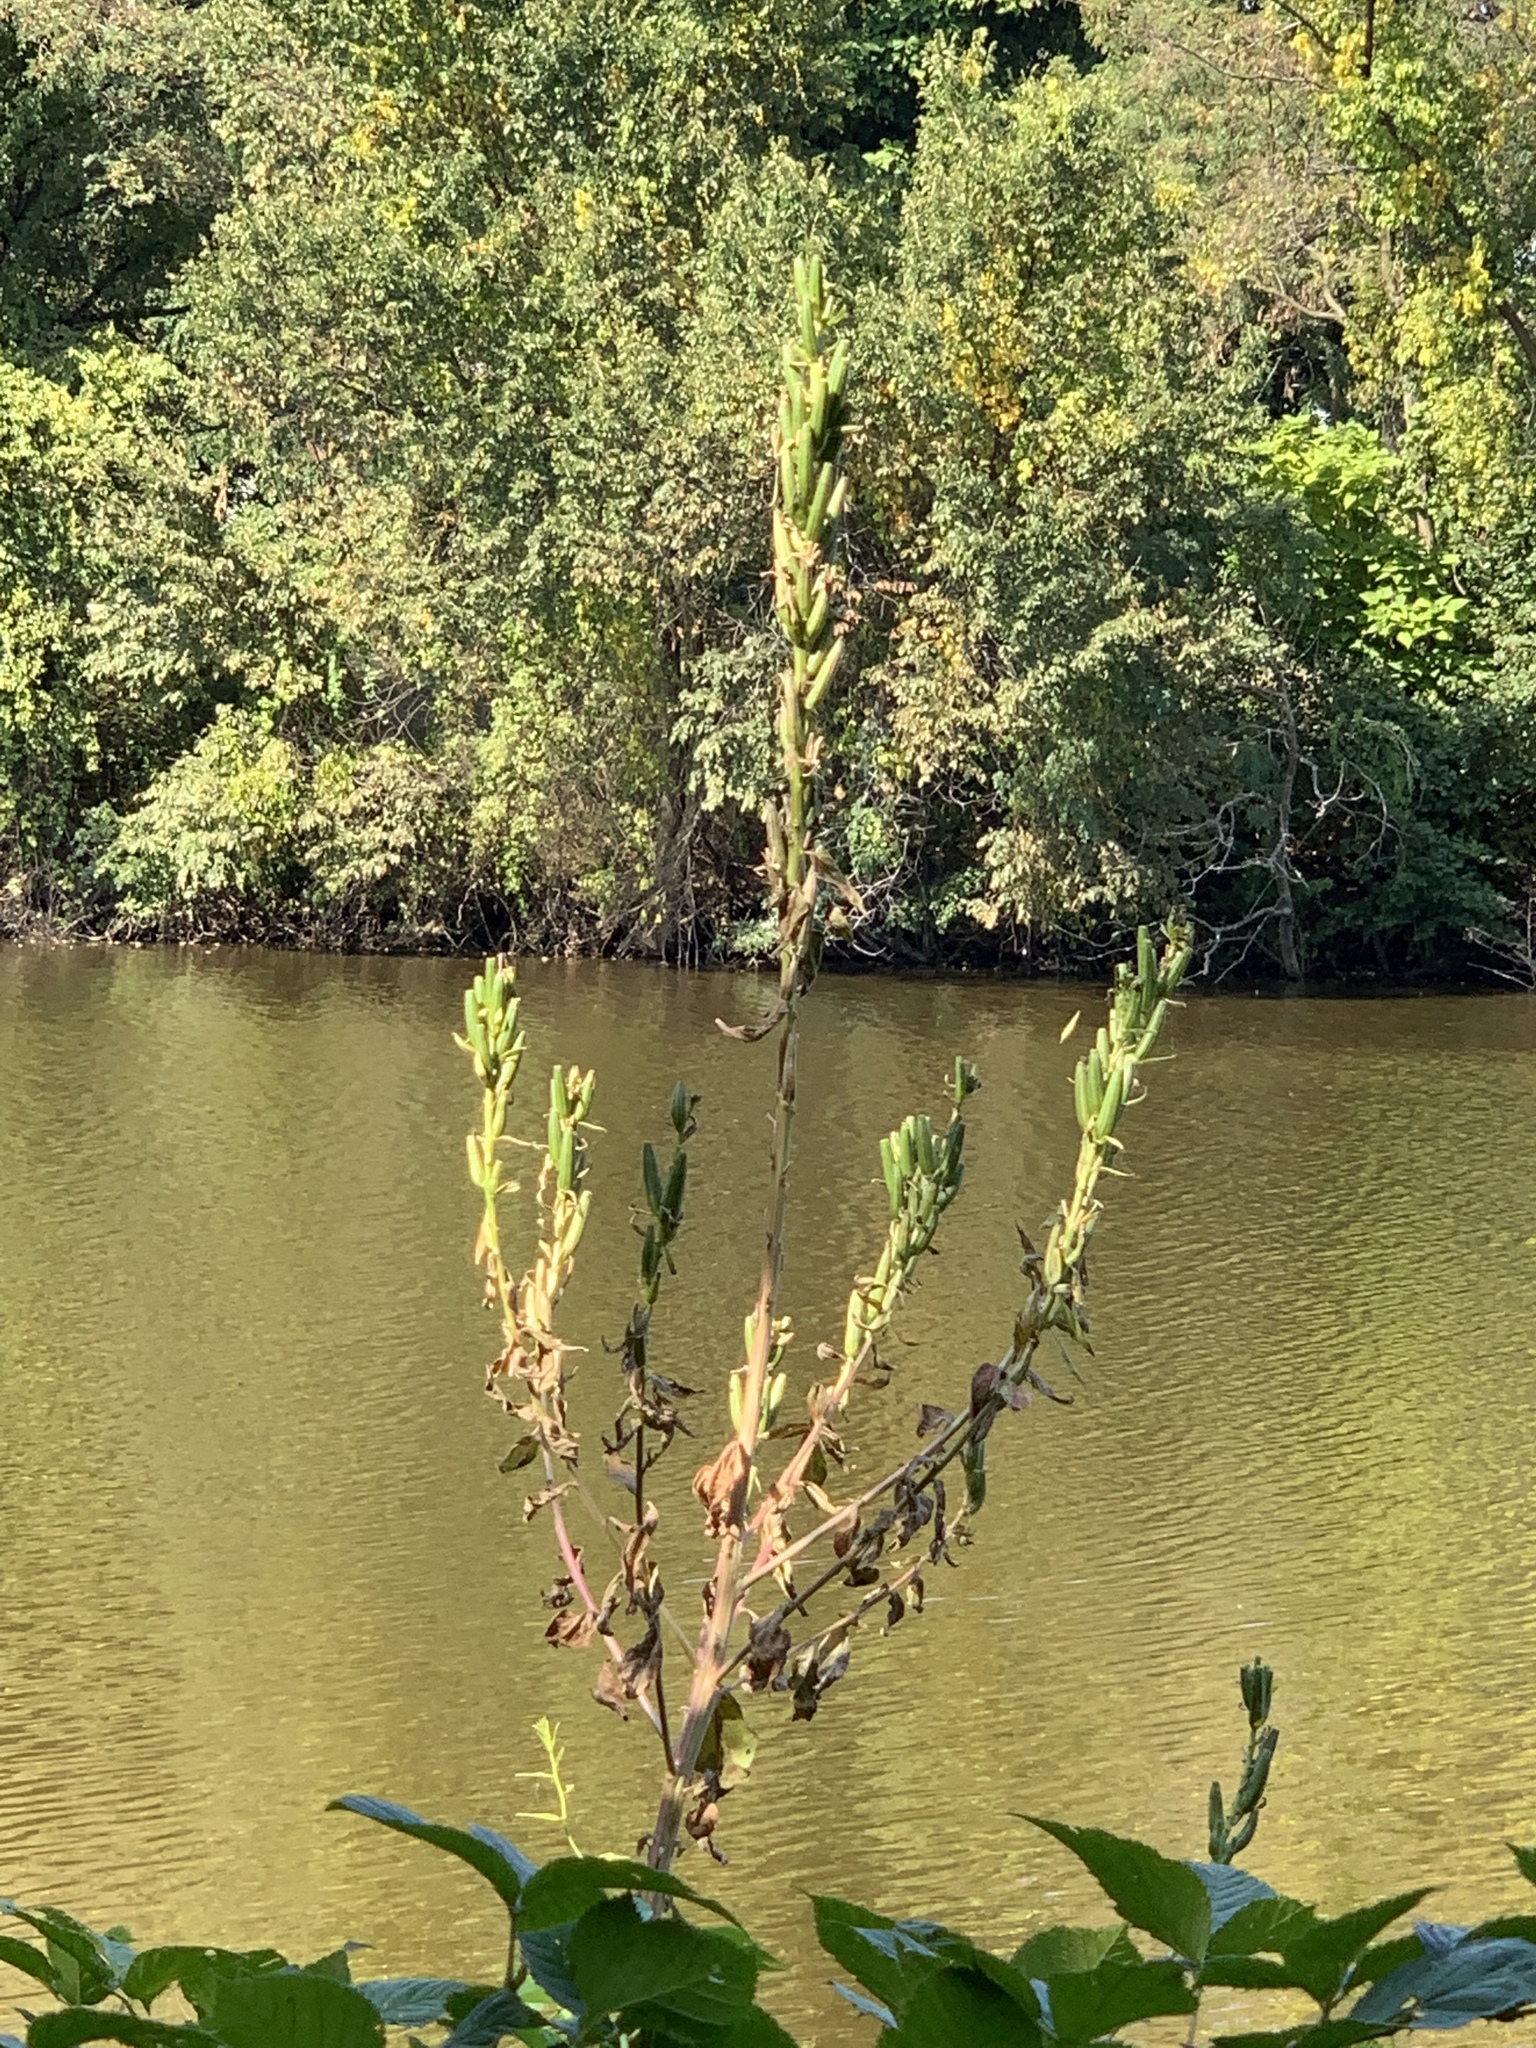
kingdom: Plantae
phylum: Tracheophyta
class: Magnoliopsida
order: Myrtales
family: Onagraceae
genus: Oenothera
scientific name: Oenothera biennis
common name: Common evening-primrose
